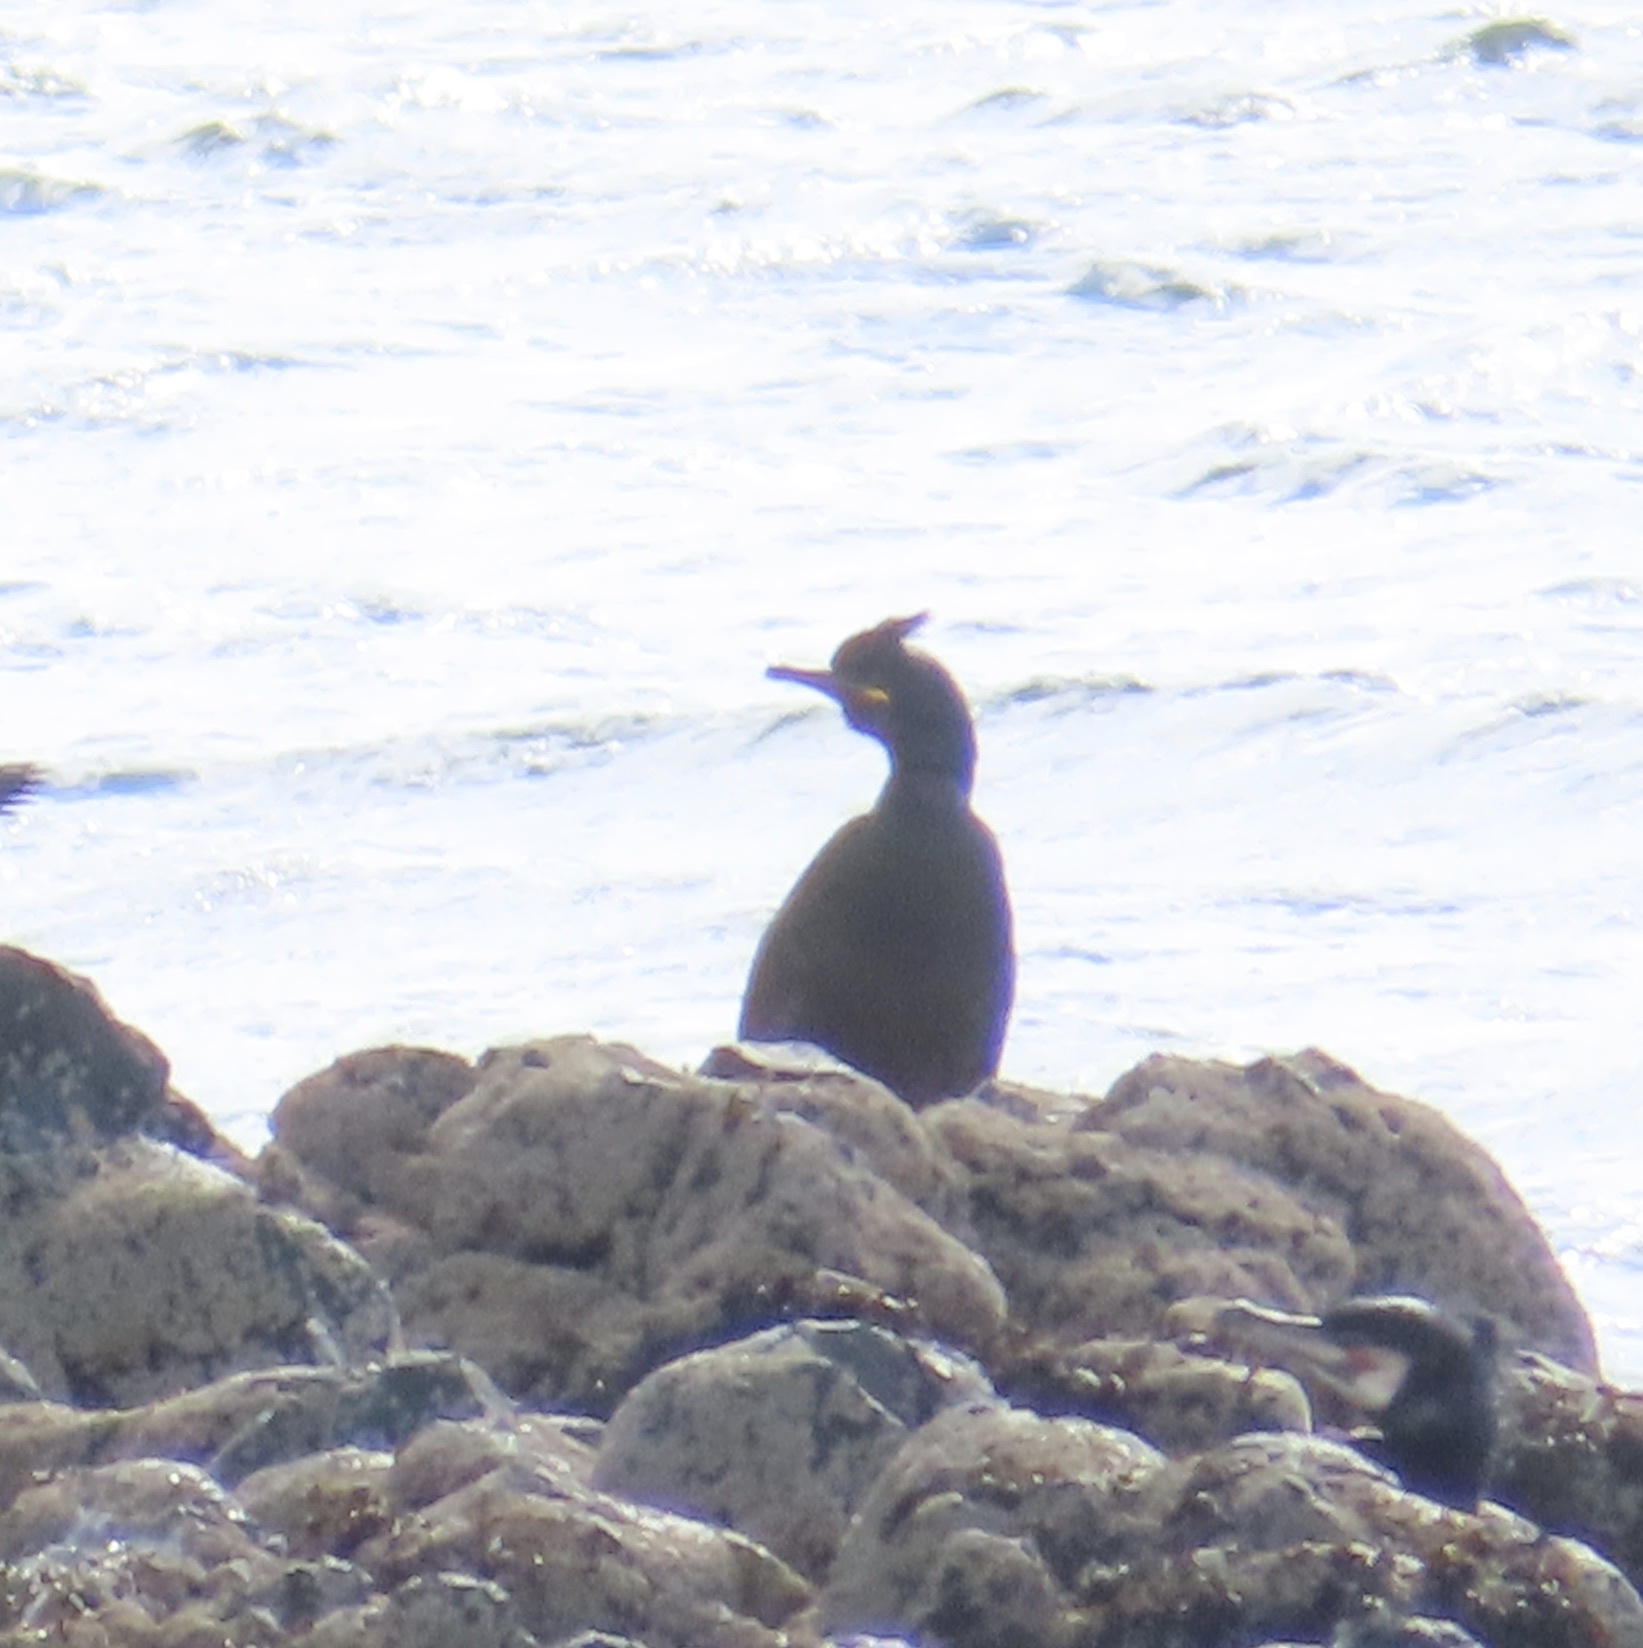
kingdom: Animalia
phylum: Chordata
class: Aves
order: Suliformes
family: Phalacrocoracidae
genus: Phalacrocorax
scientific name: Phalacrocorax aristotelis
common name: European shag
